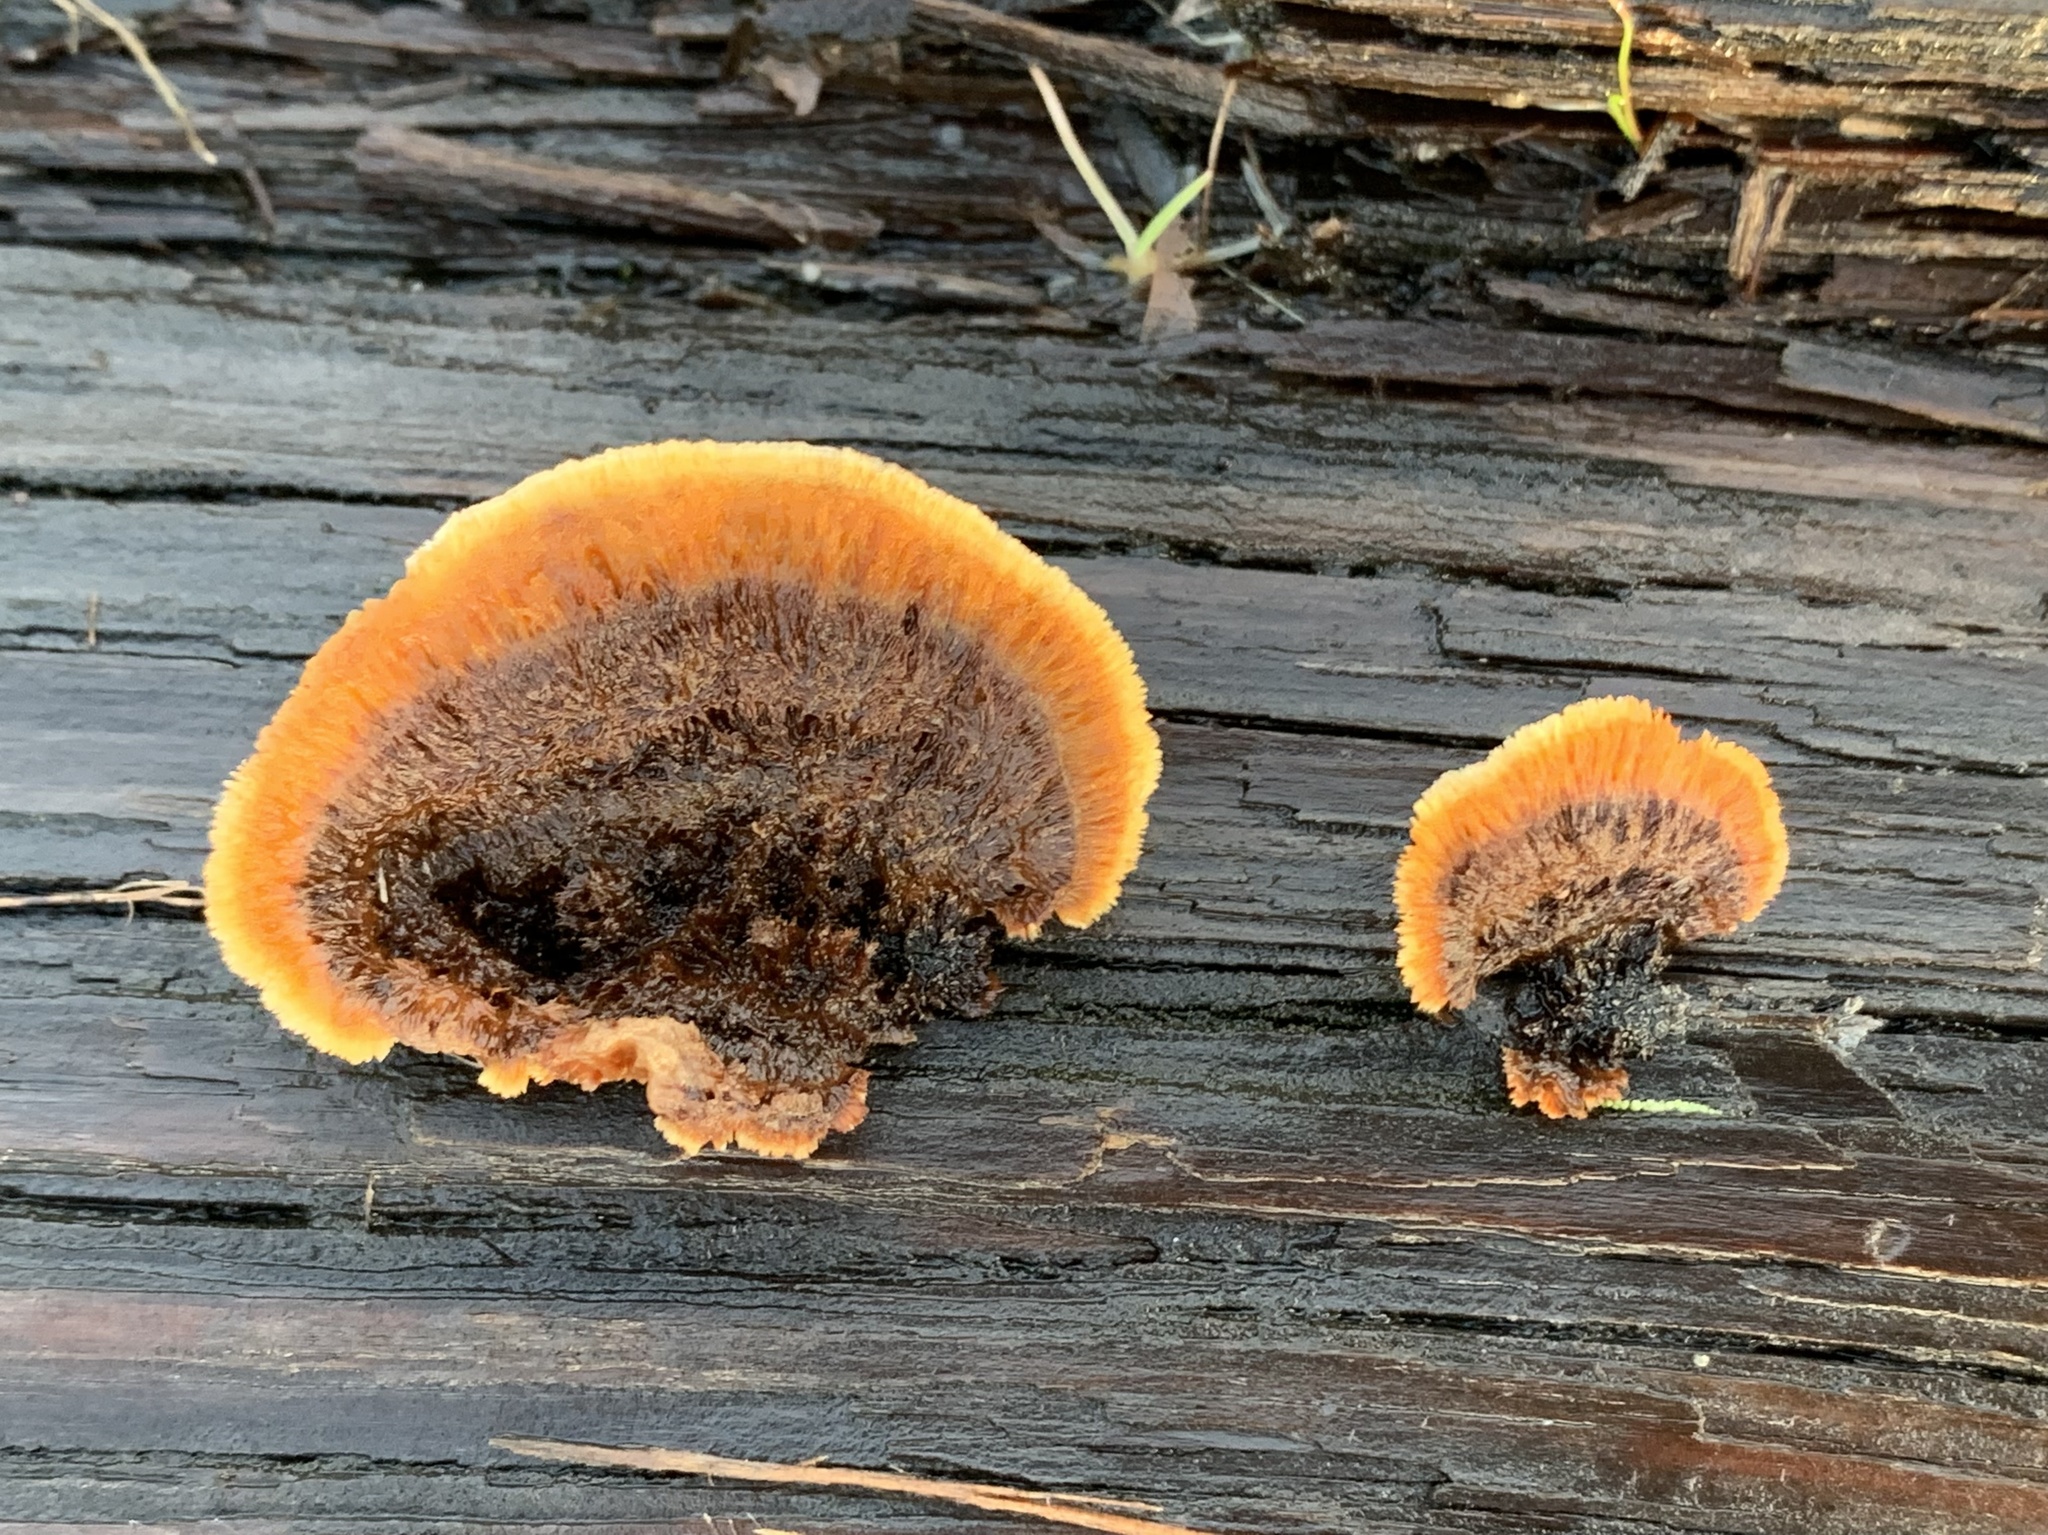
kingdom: Fungi
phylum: Basidiomycota
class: Agaricomycetes
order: Gloeophyllales
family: Gloeophyllaceae
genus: Gloeophyllum
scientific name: Gloeophyllum sepiarium
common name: Conifer mazegill
